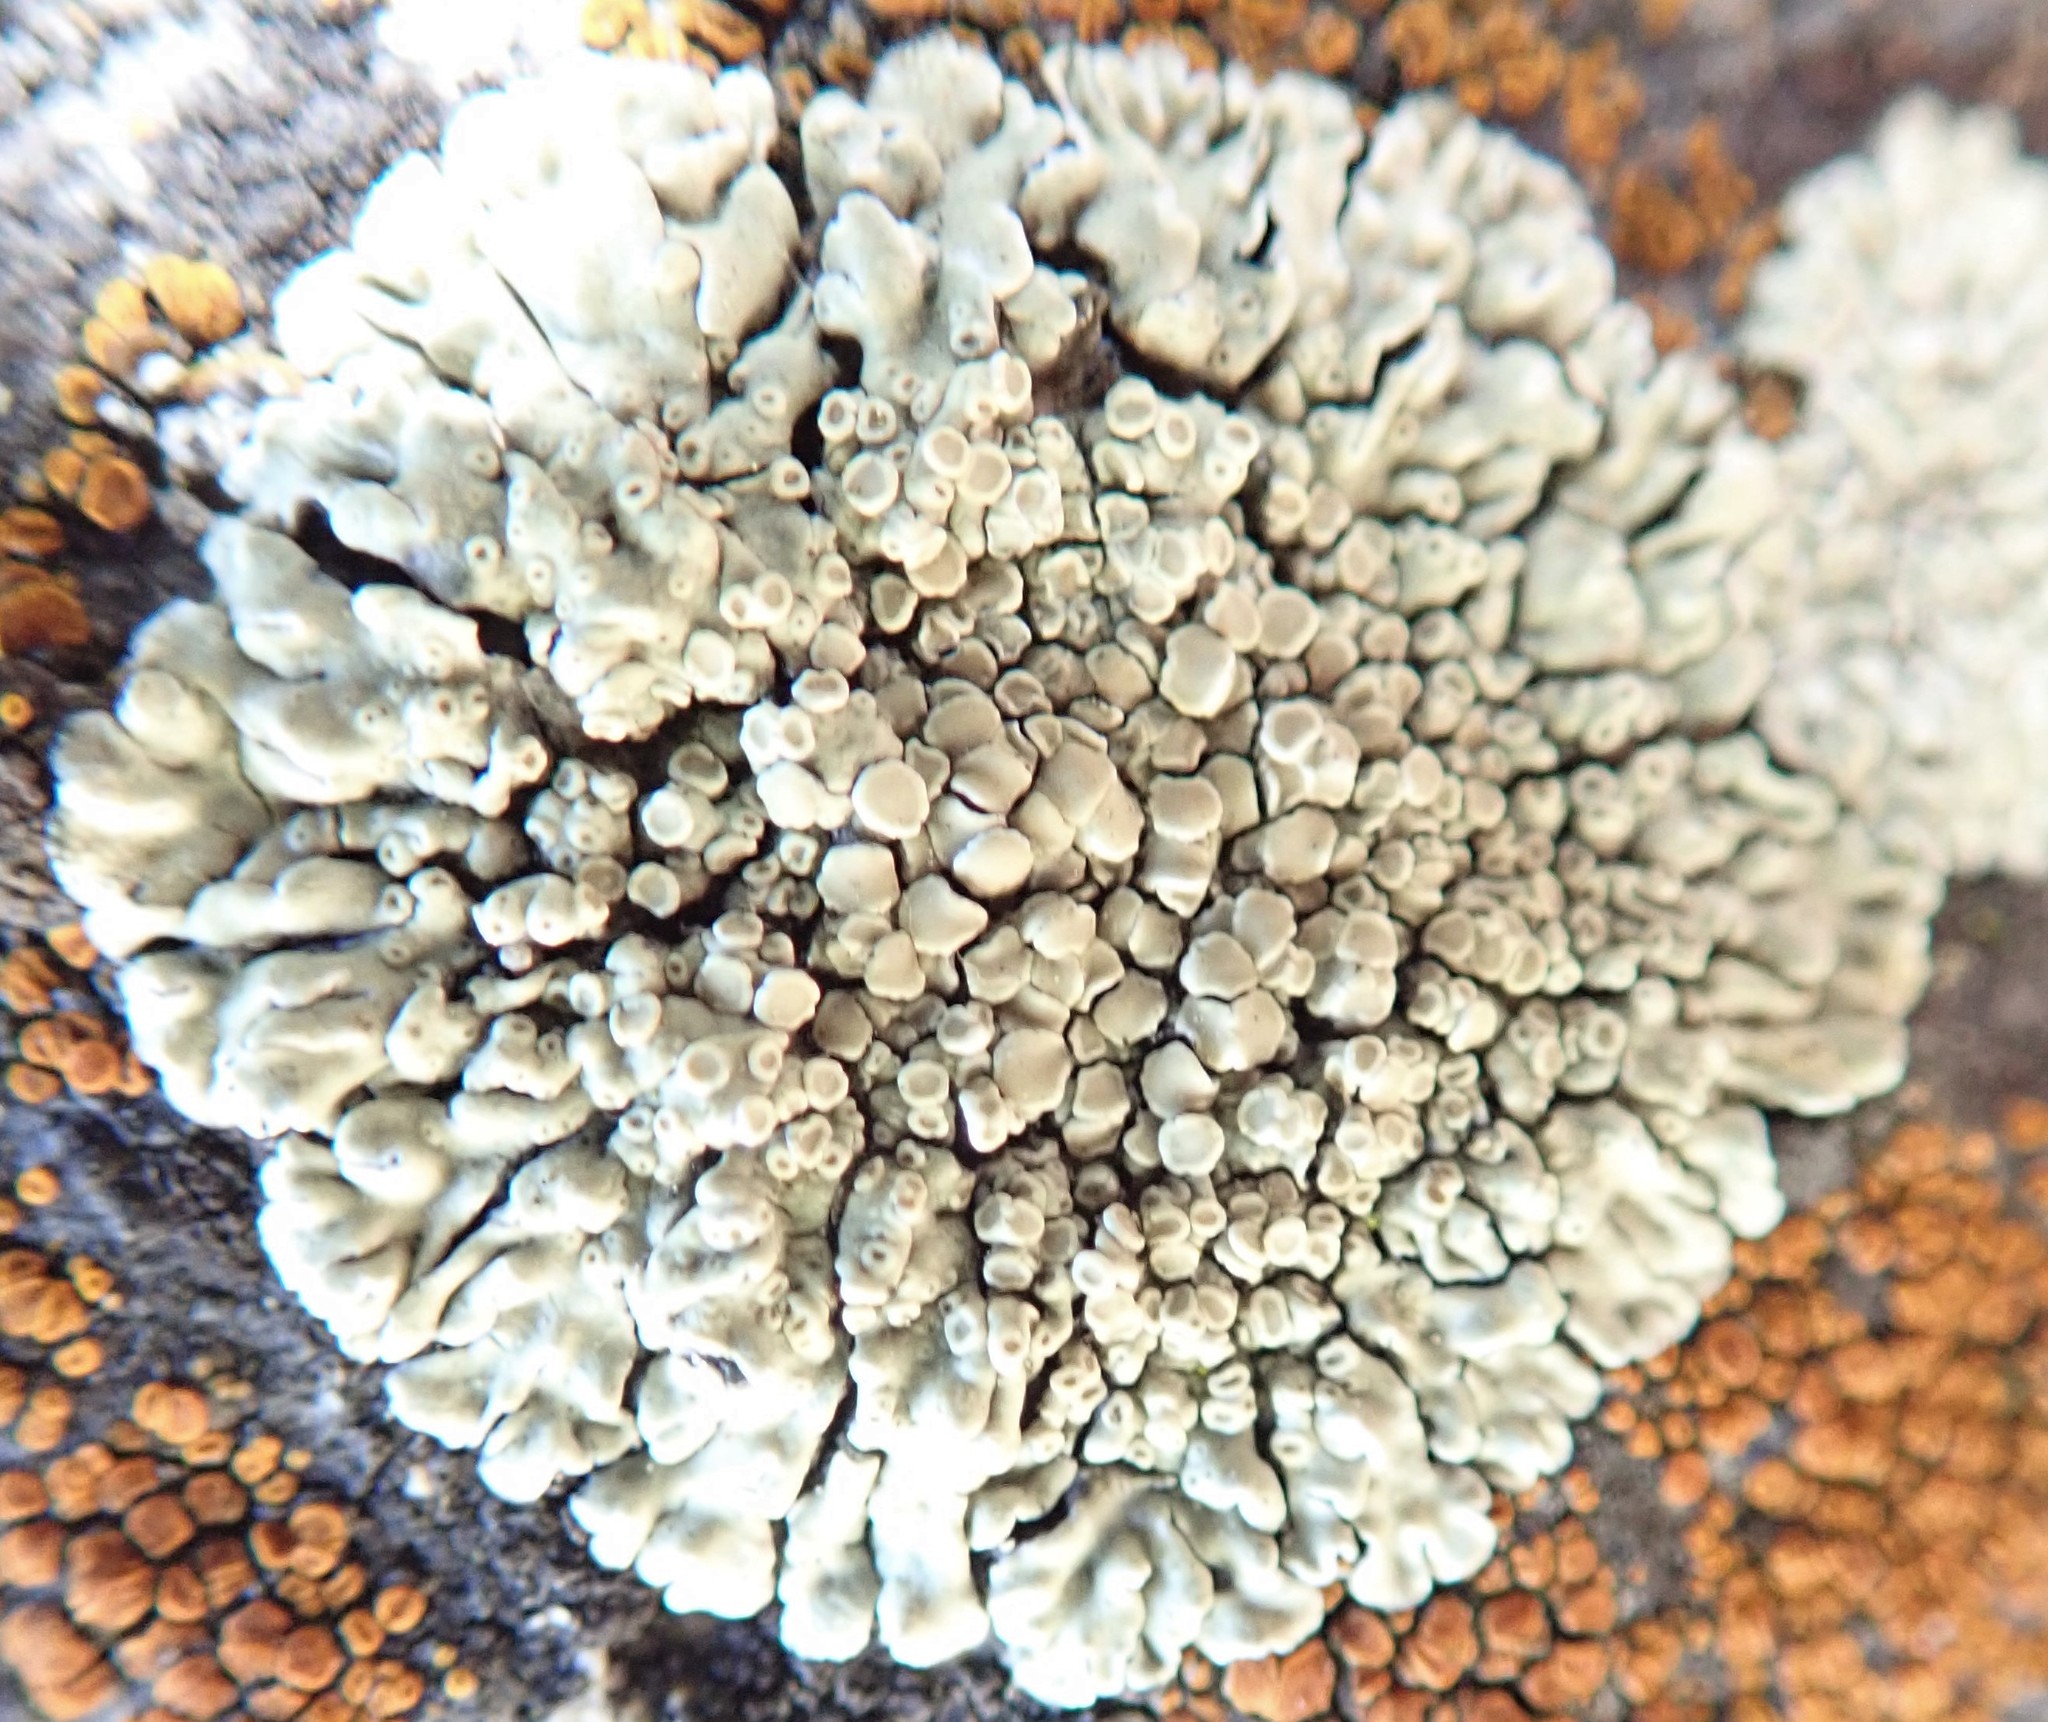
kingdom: Fungi
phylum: Ascomycota
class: Lecanoromycetes
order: Lecanorales
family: Lecanoraceae
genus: Protoparmeliopsis
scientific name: Protoparmeliopsis muralis
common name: Stonewall rim lichen
